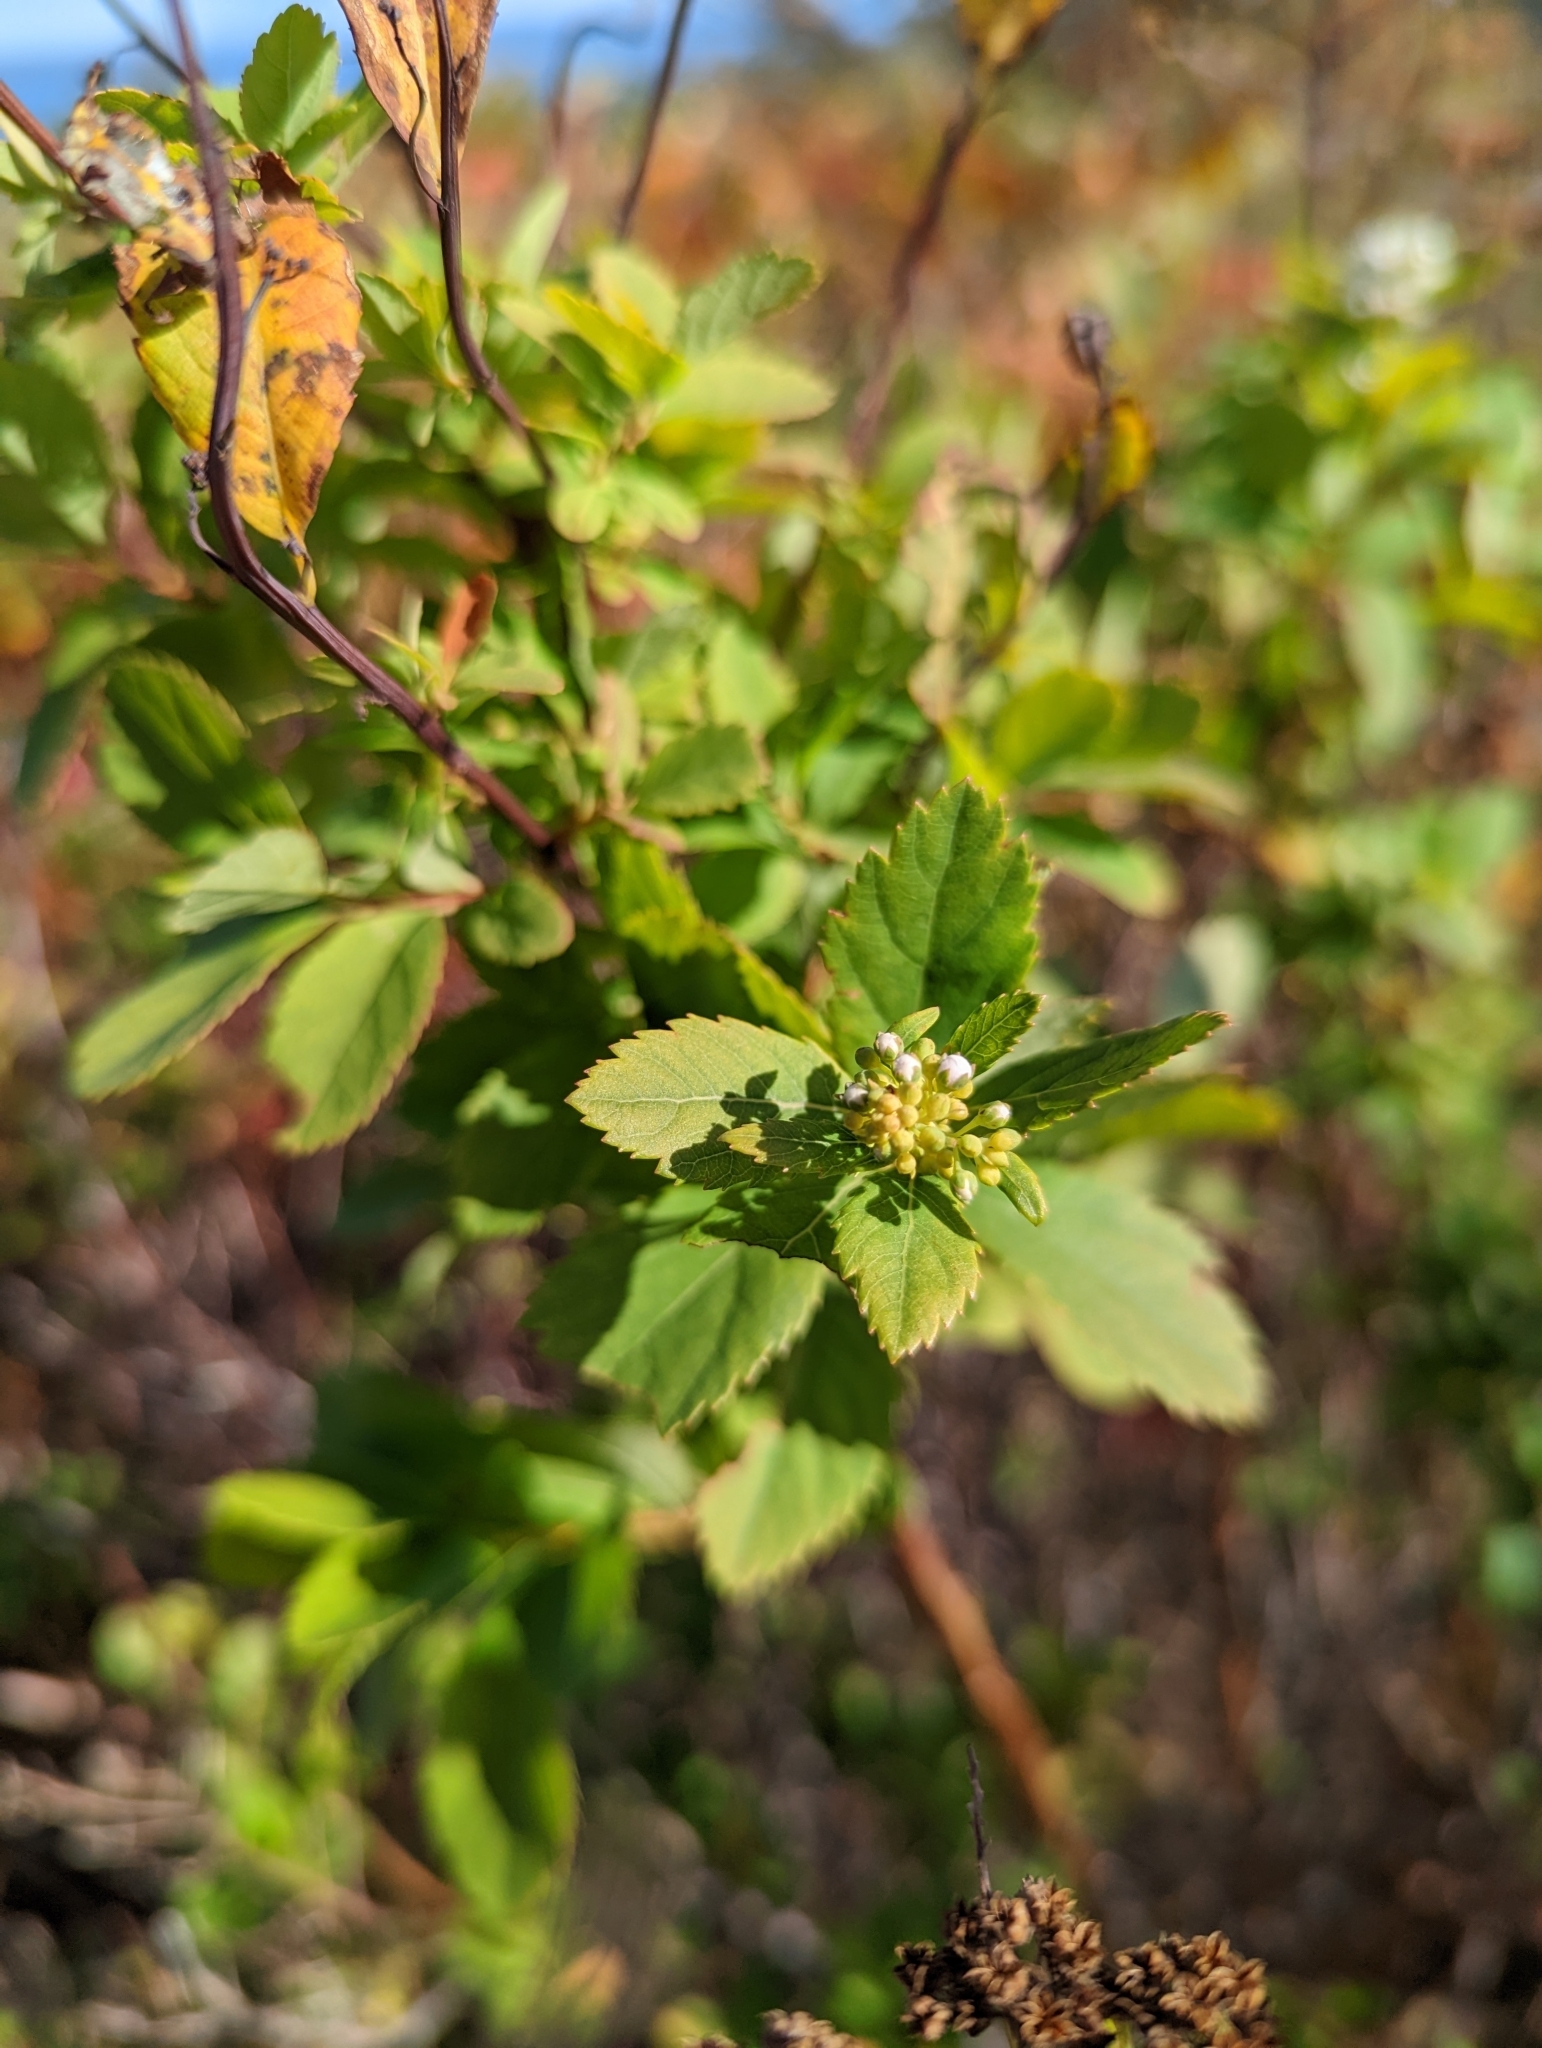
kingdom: Plantae
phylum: Tracheophyta
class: Magnoliopsida
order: Rosales
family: Rosaceae
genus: Spiraea
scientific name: Spiraea alba
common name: Pale bridewort
